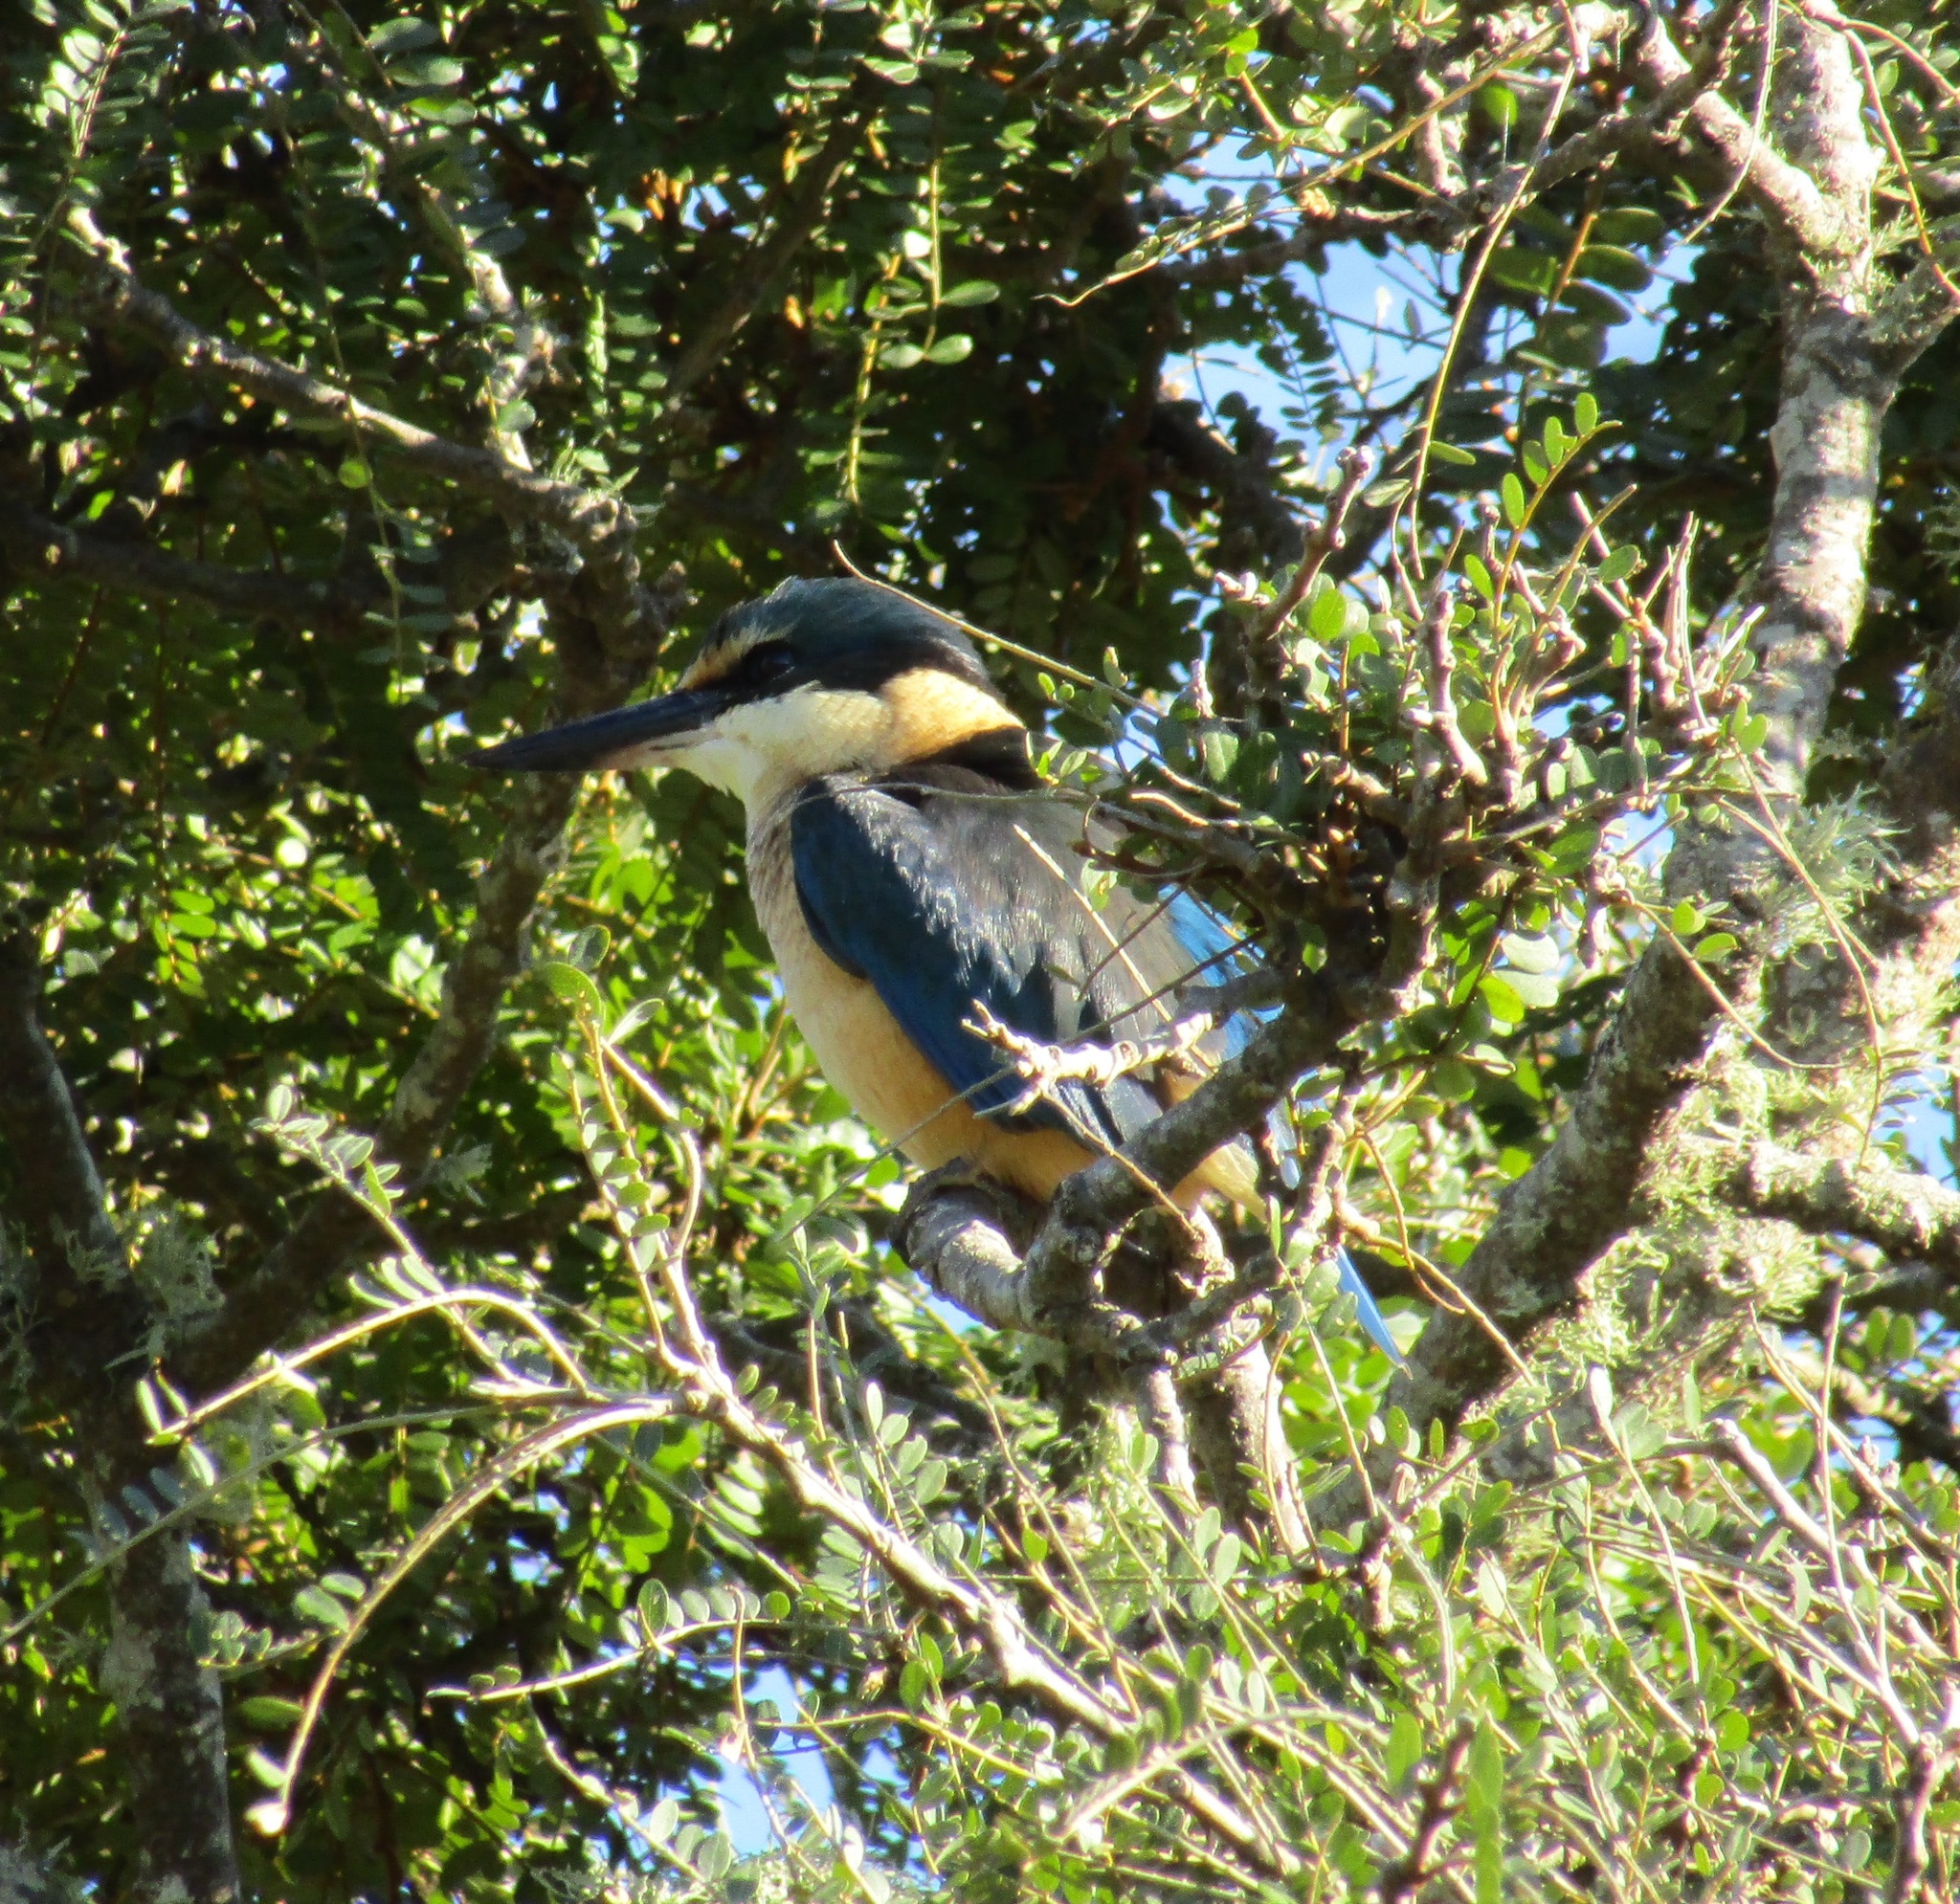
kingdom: Animalia
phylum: Chordata
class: Aves
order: Coraciiformes
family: Alcedinidae
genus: Todiramphus
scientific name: Todiramphus sanctus
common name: Sacred kingfisher
